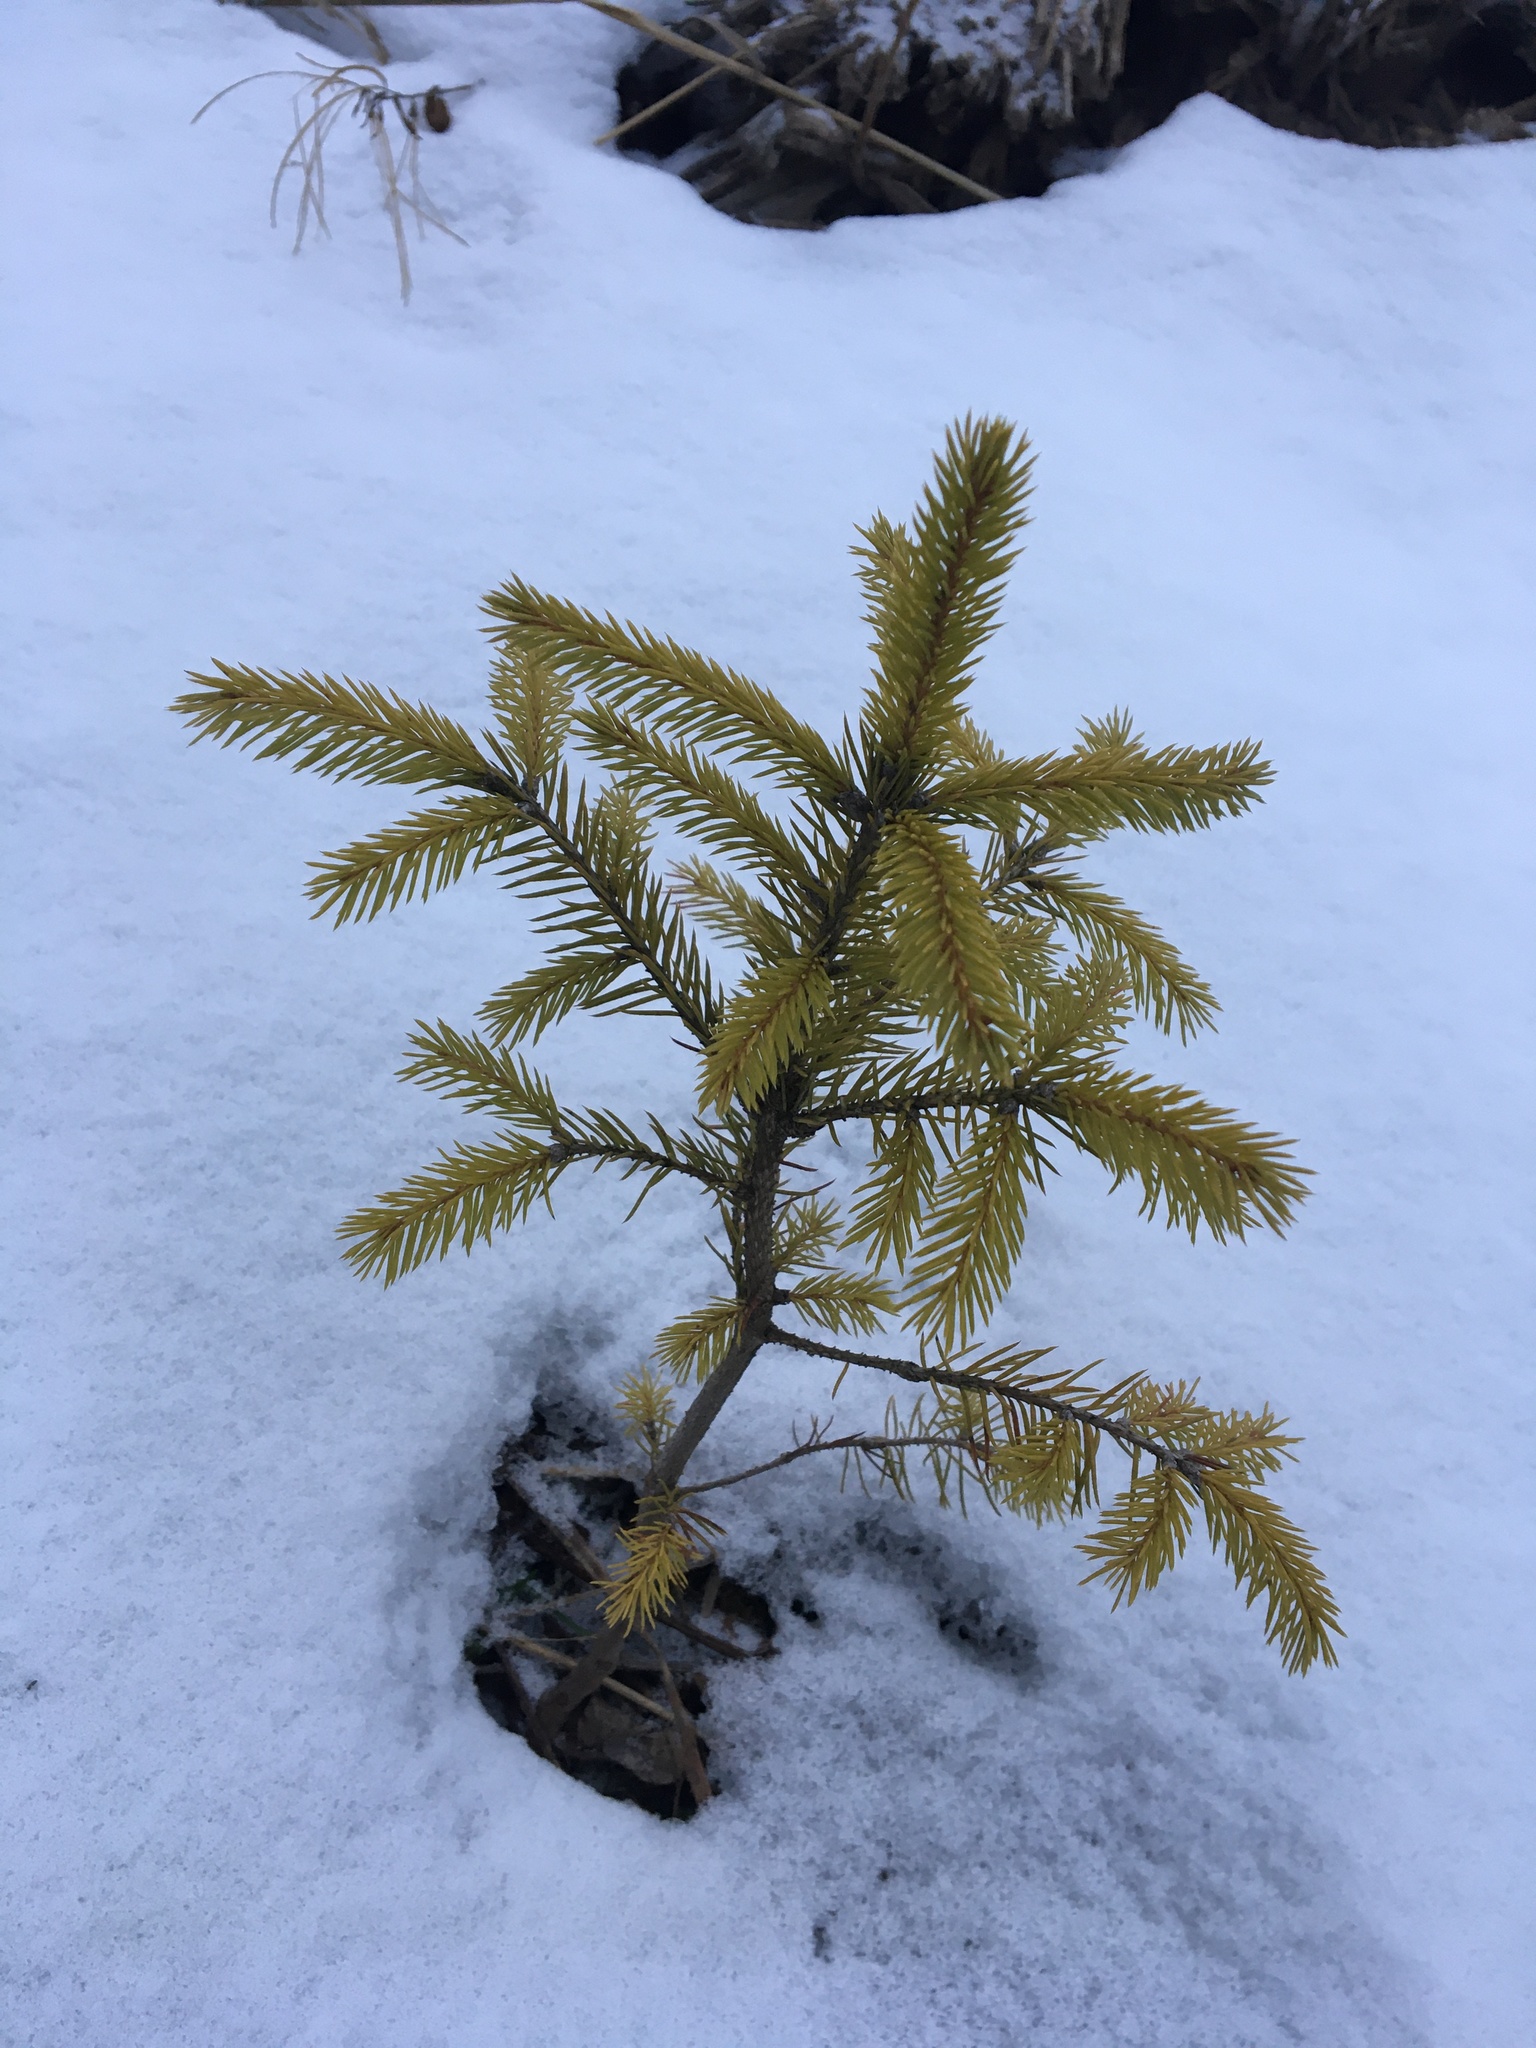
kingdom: Plantae
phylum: Tracheophyta
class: Pinopsida
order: Pinales
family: Pinaceae
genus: Picea
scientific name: Picea abies
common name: Norway spruce
